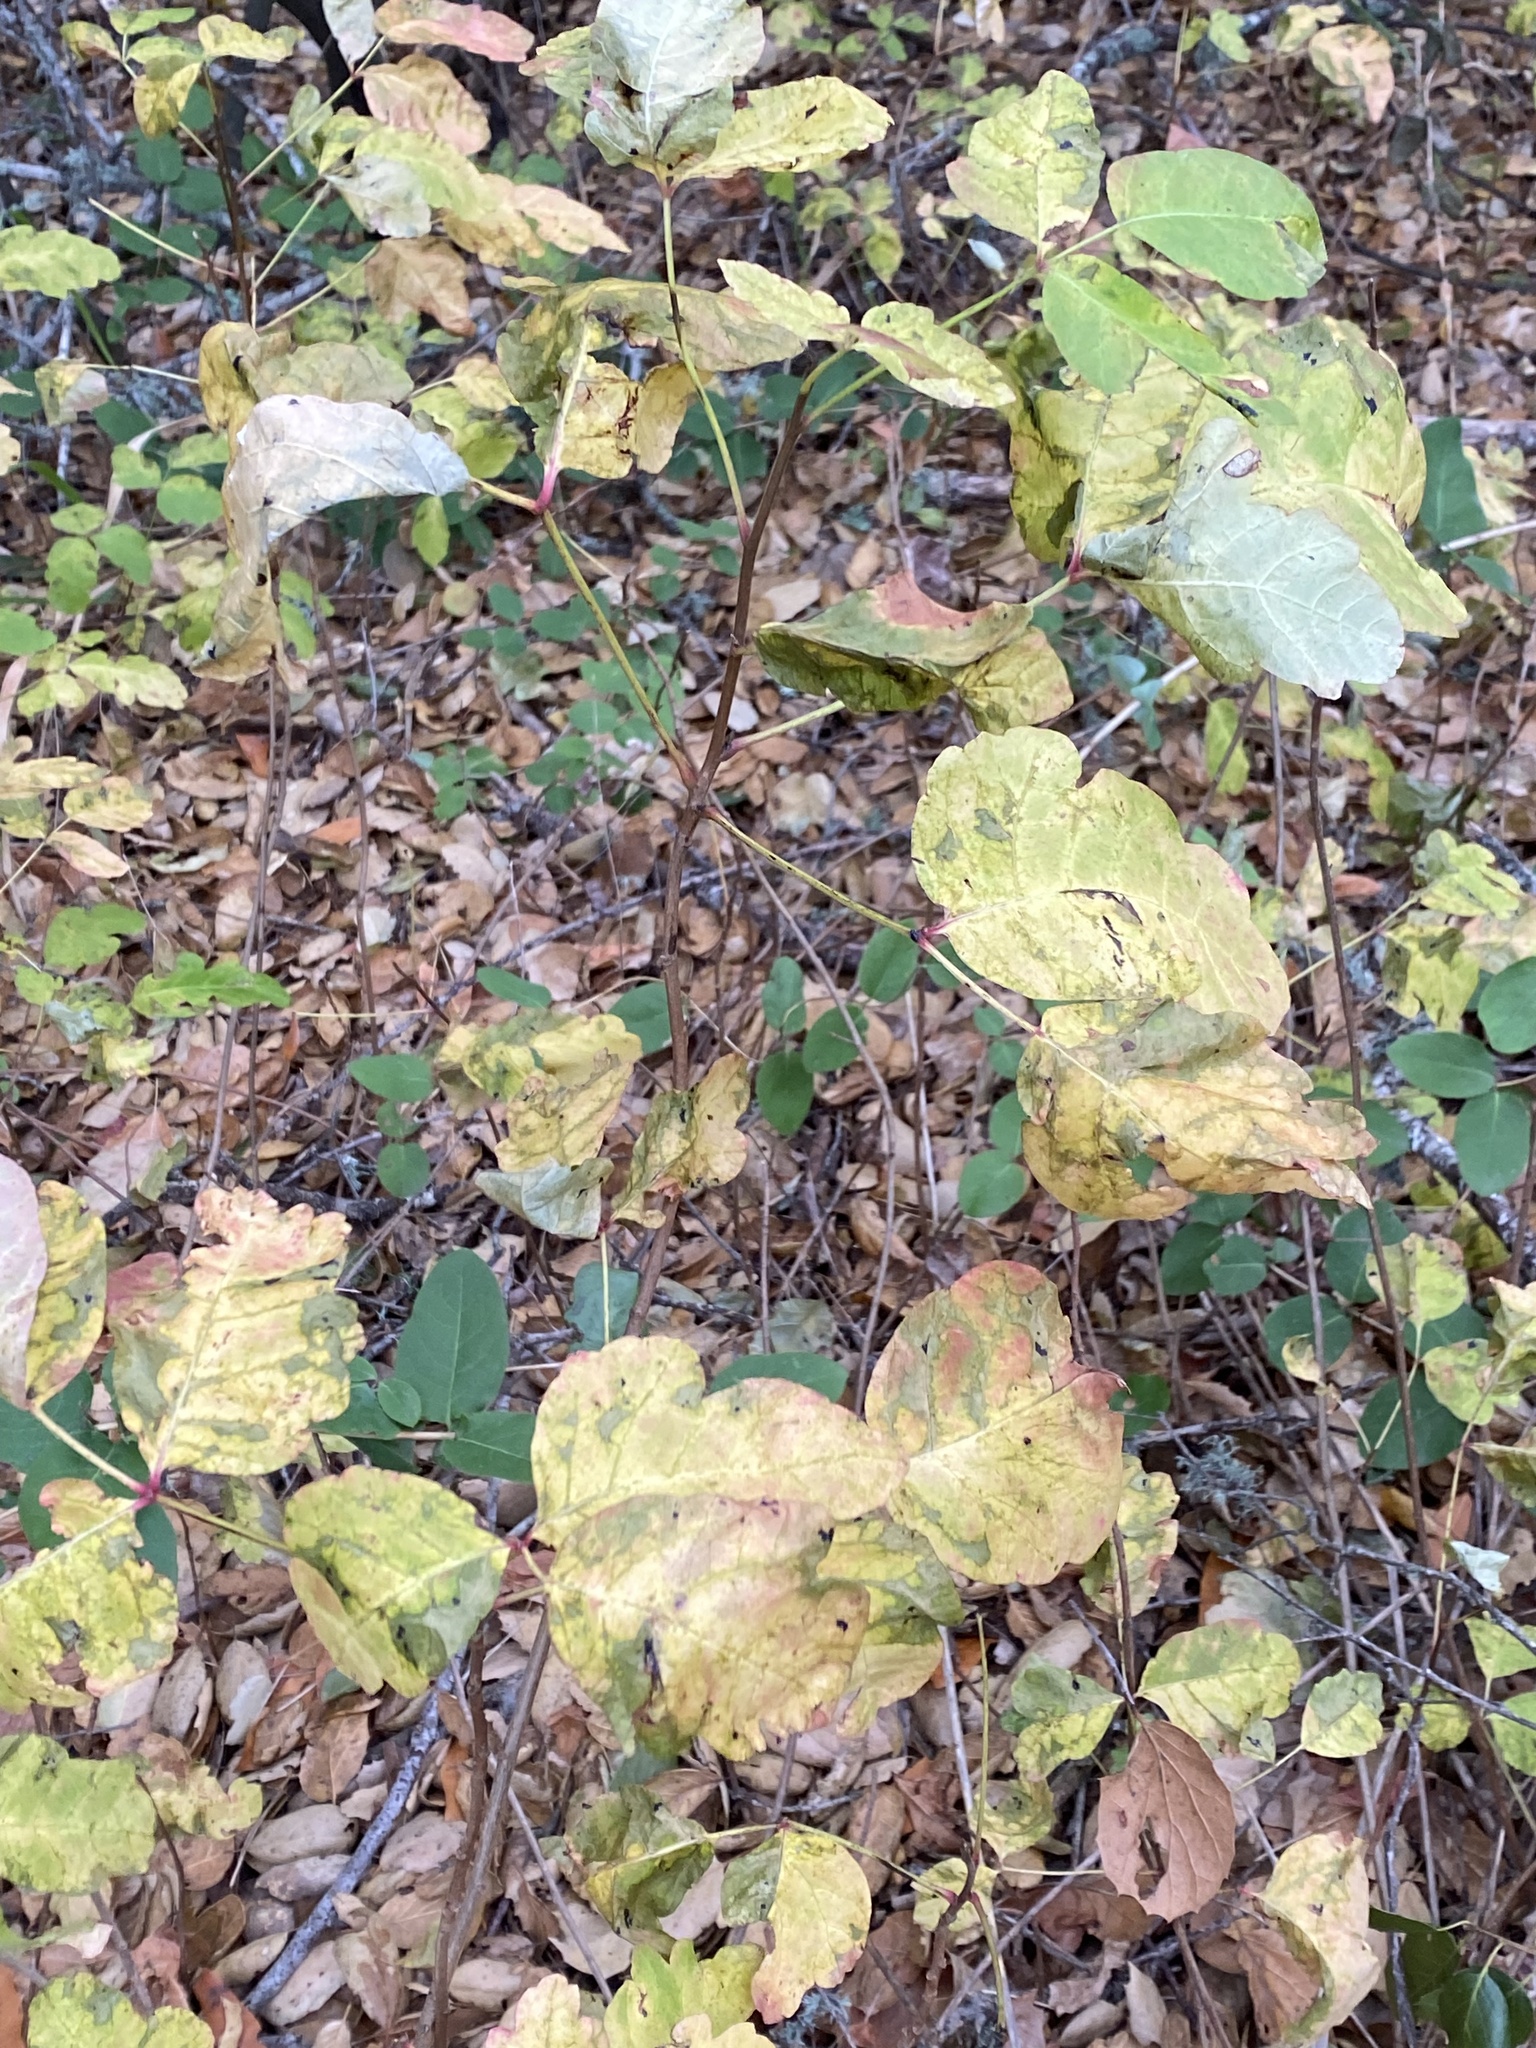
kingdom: Plantae
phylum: Tracheophyta
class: Magnoliopsida
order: Sapindales
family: Anacardiaceae
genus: Toxicodendron
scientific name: Toxicodendron diversilobum
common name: Pacific poison-oak
